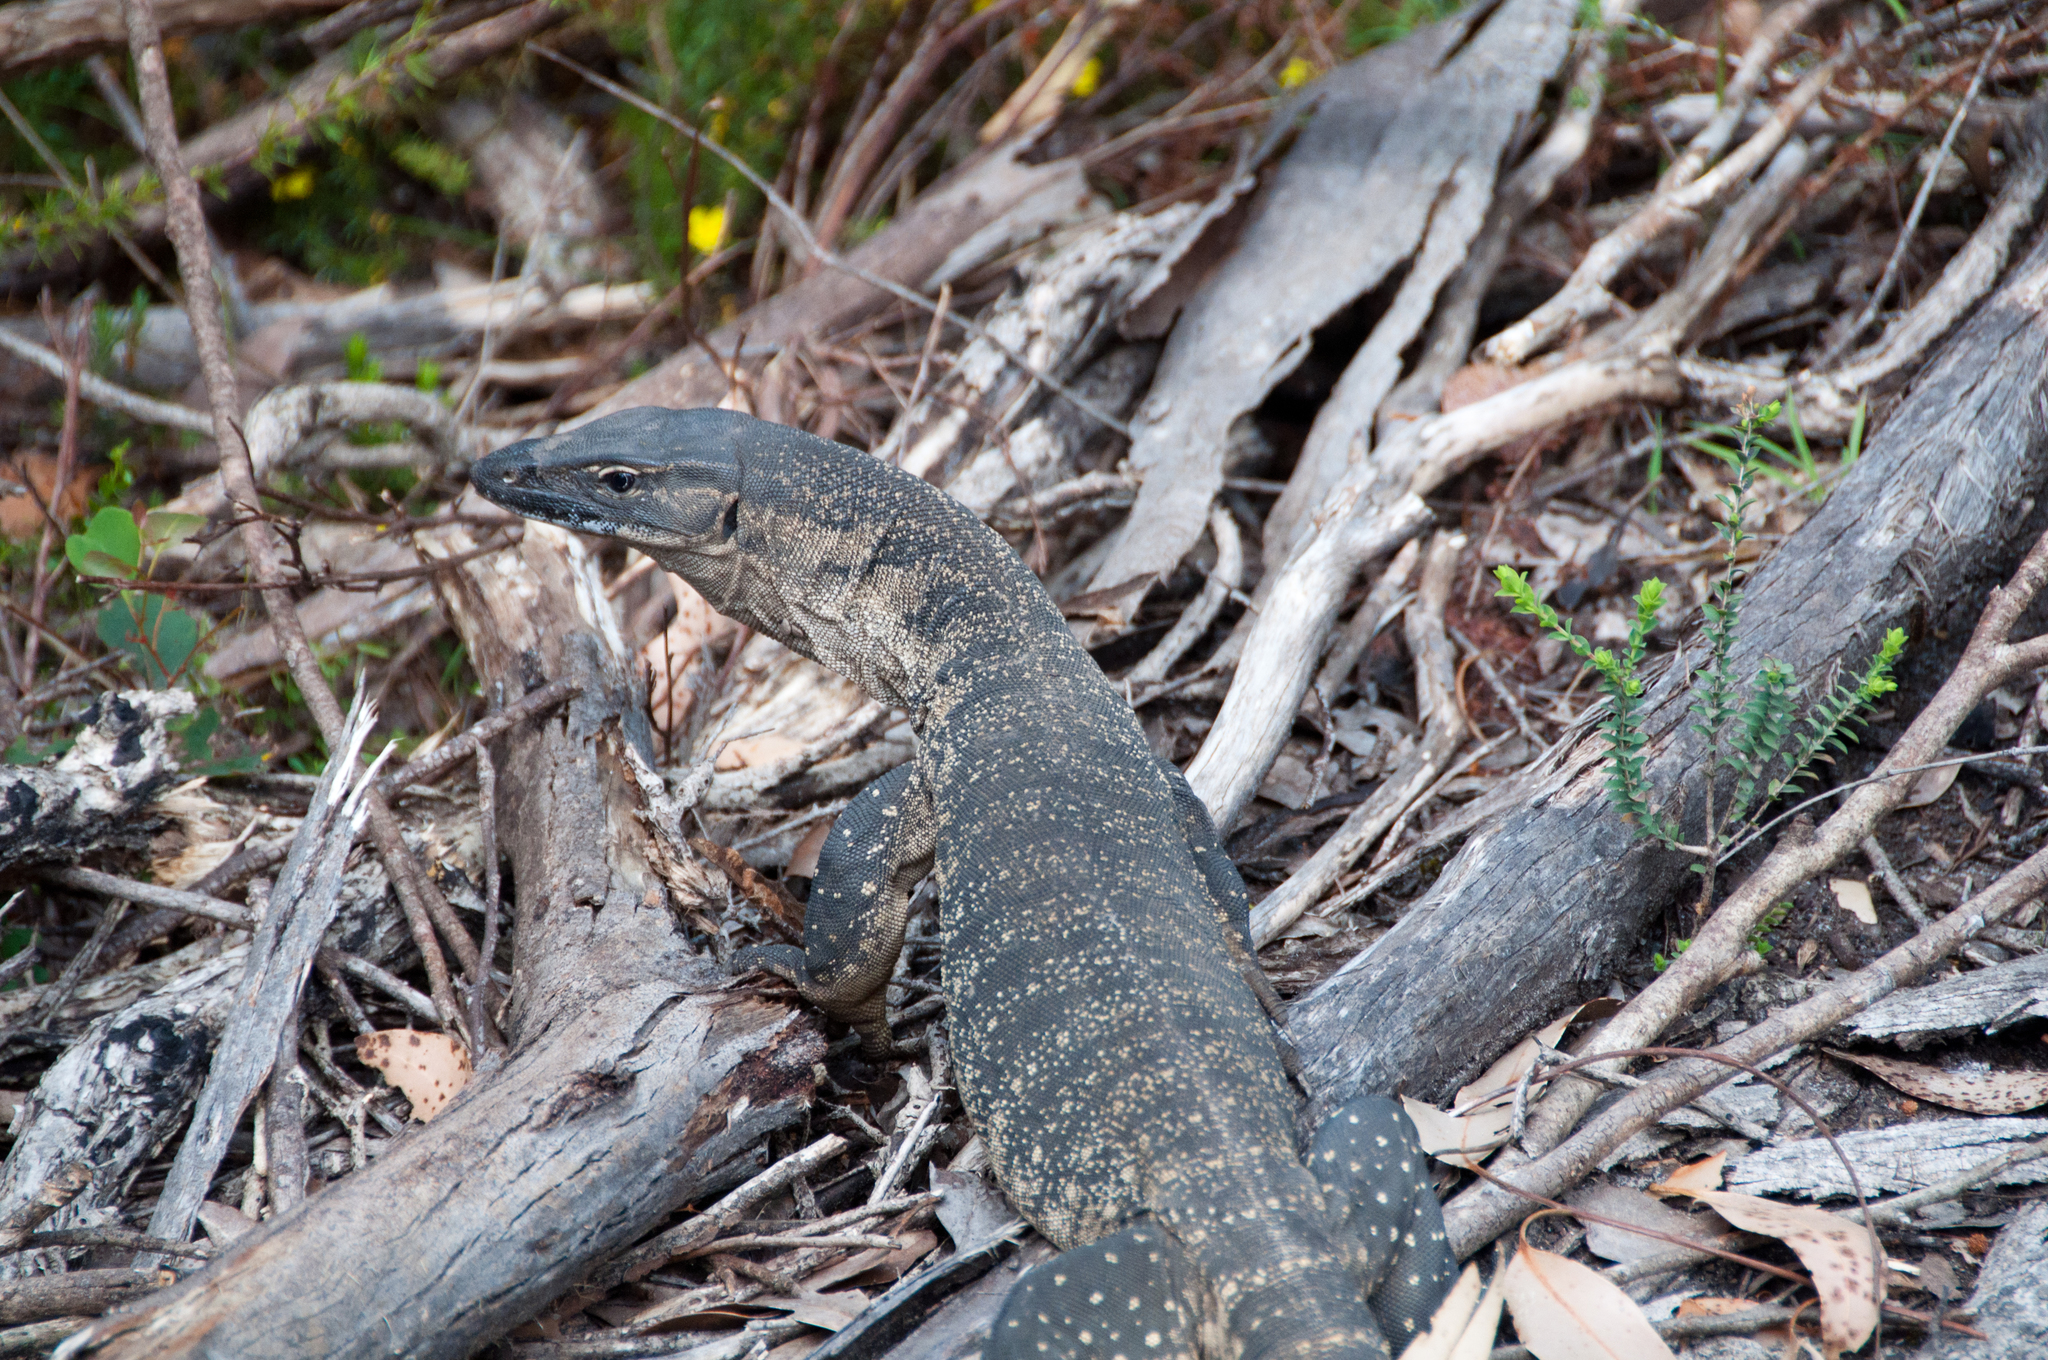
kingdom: Animalia
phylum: Chordata
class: Squamata
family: Varanidae
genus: Varanus
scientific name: Varanus rosenbergi
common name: Heath monitor
